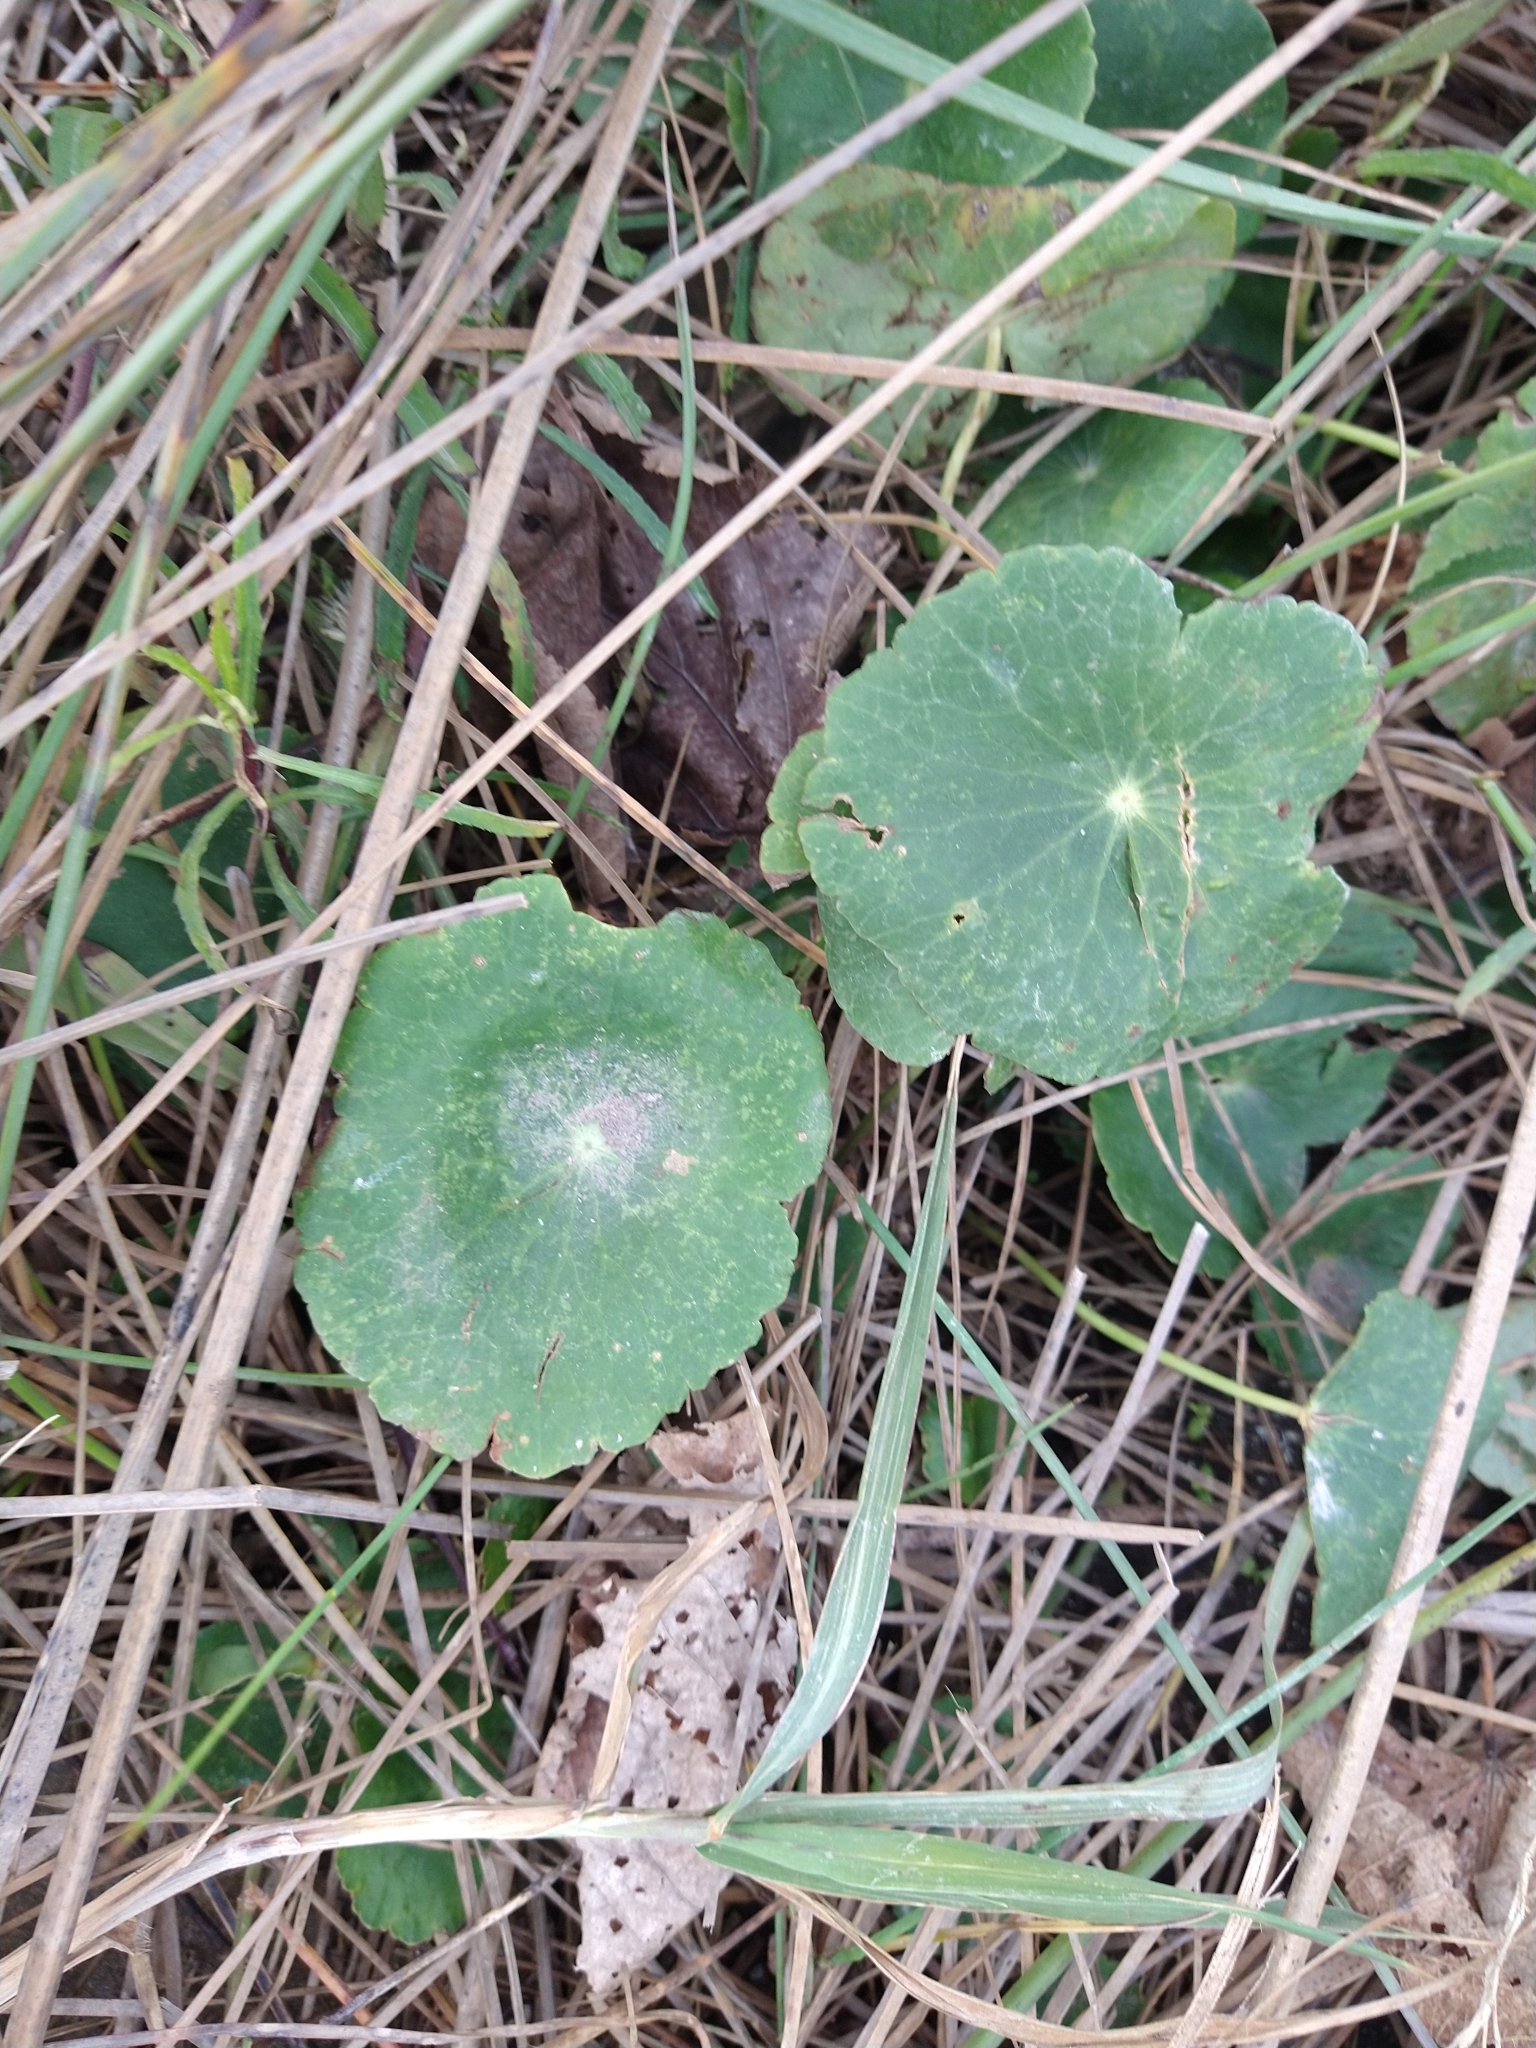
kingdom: Plantae
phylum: Tracheophyta
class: Magnoliopsida
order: Apiales
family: Araliaceae
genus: Hydrocotyle
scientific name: Hydrocotyle bonariensis
